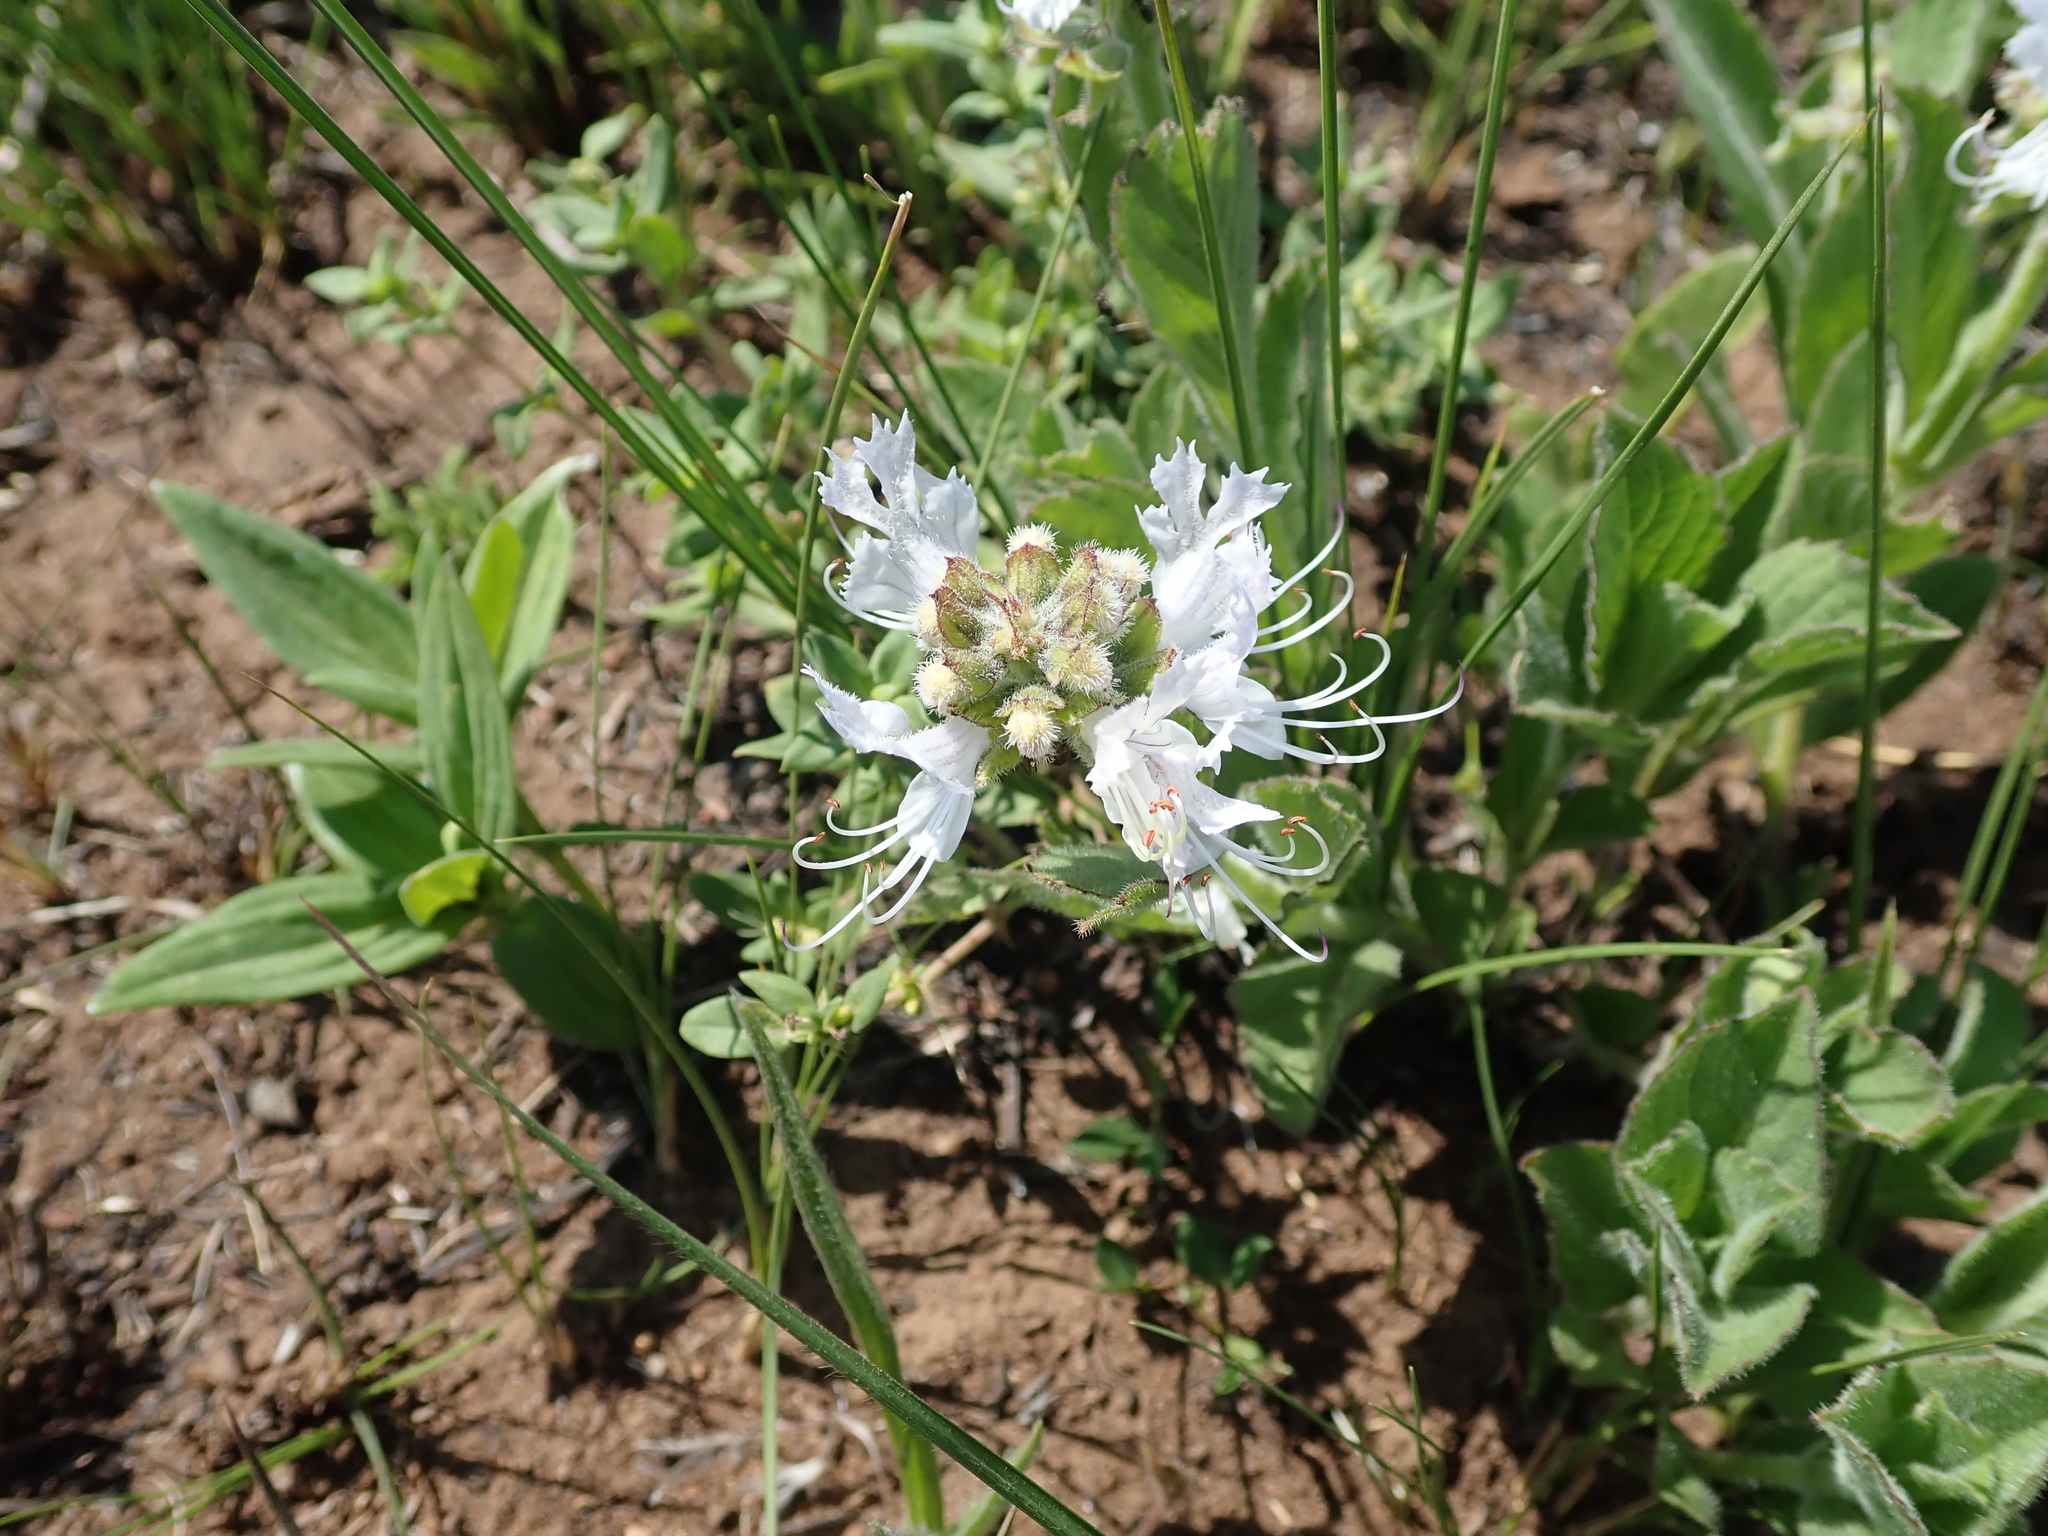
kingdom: Plantae
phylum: Tracheophyta
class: Magnoliopsida
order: Lamiales
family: Lamiaceae
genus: Ocimum
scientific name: Ocimum obovatum
